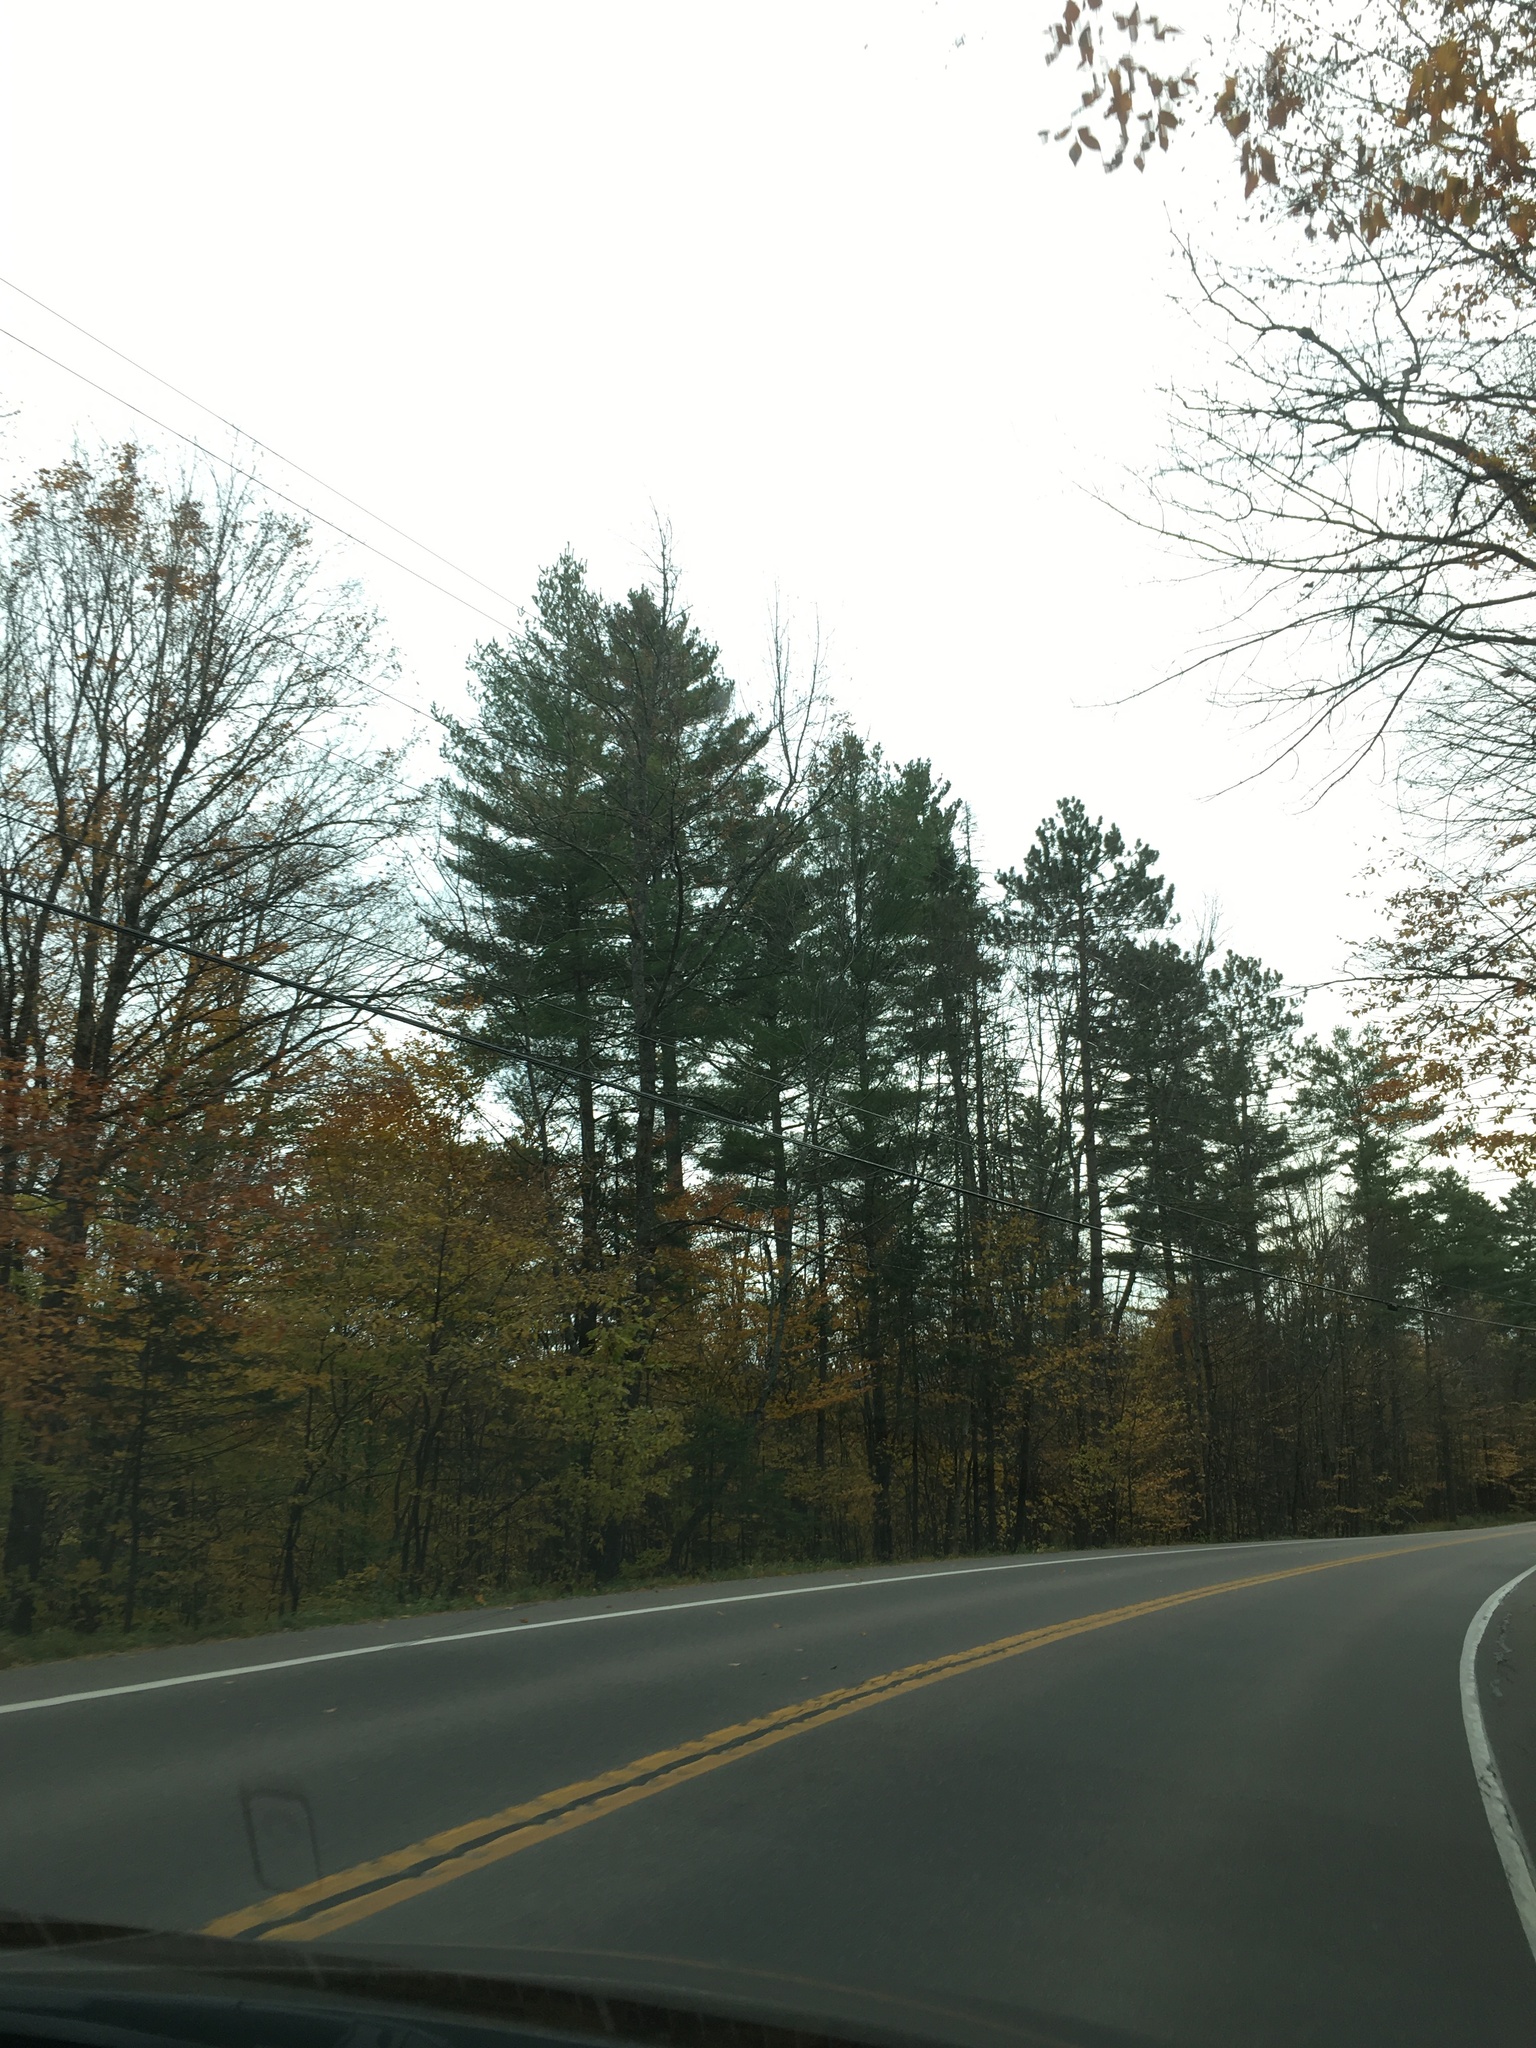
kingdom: Plantae
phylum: Tracheophyta
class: Pinopsida
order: Pinales
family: Pinaceae
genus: Pinus
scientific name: Pinus strobus
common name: Weymouth pine
